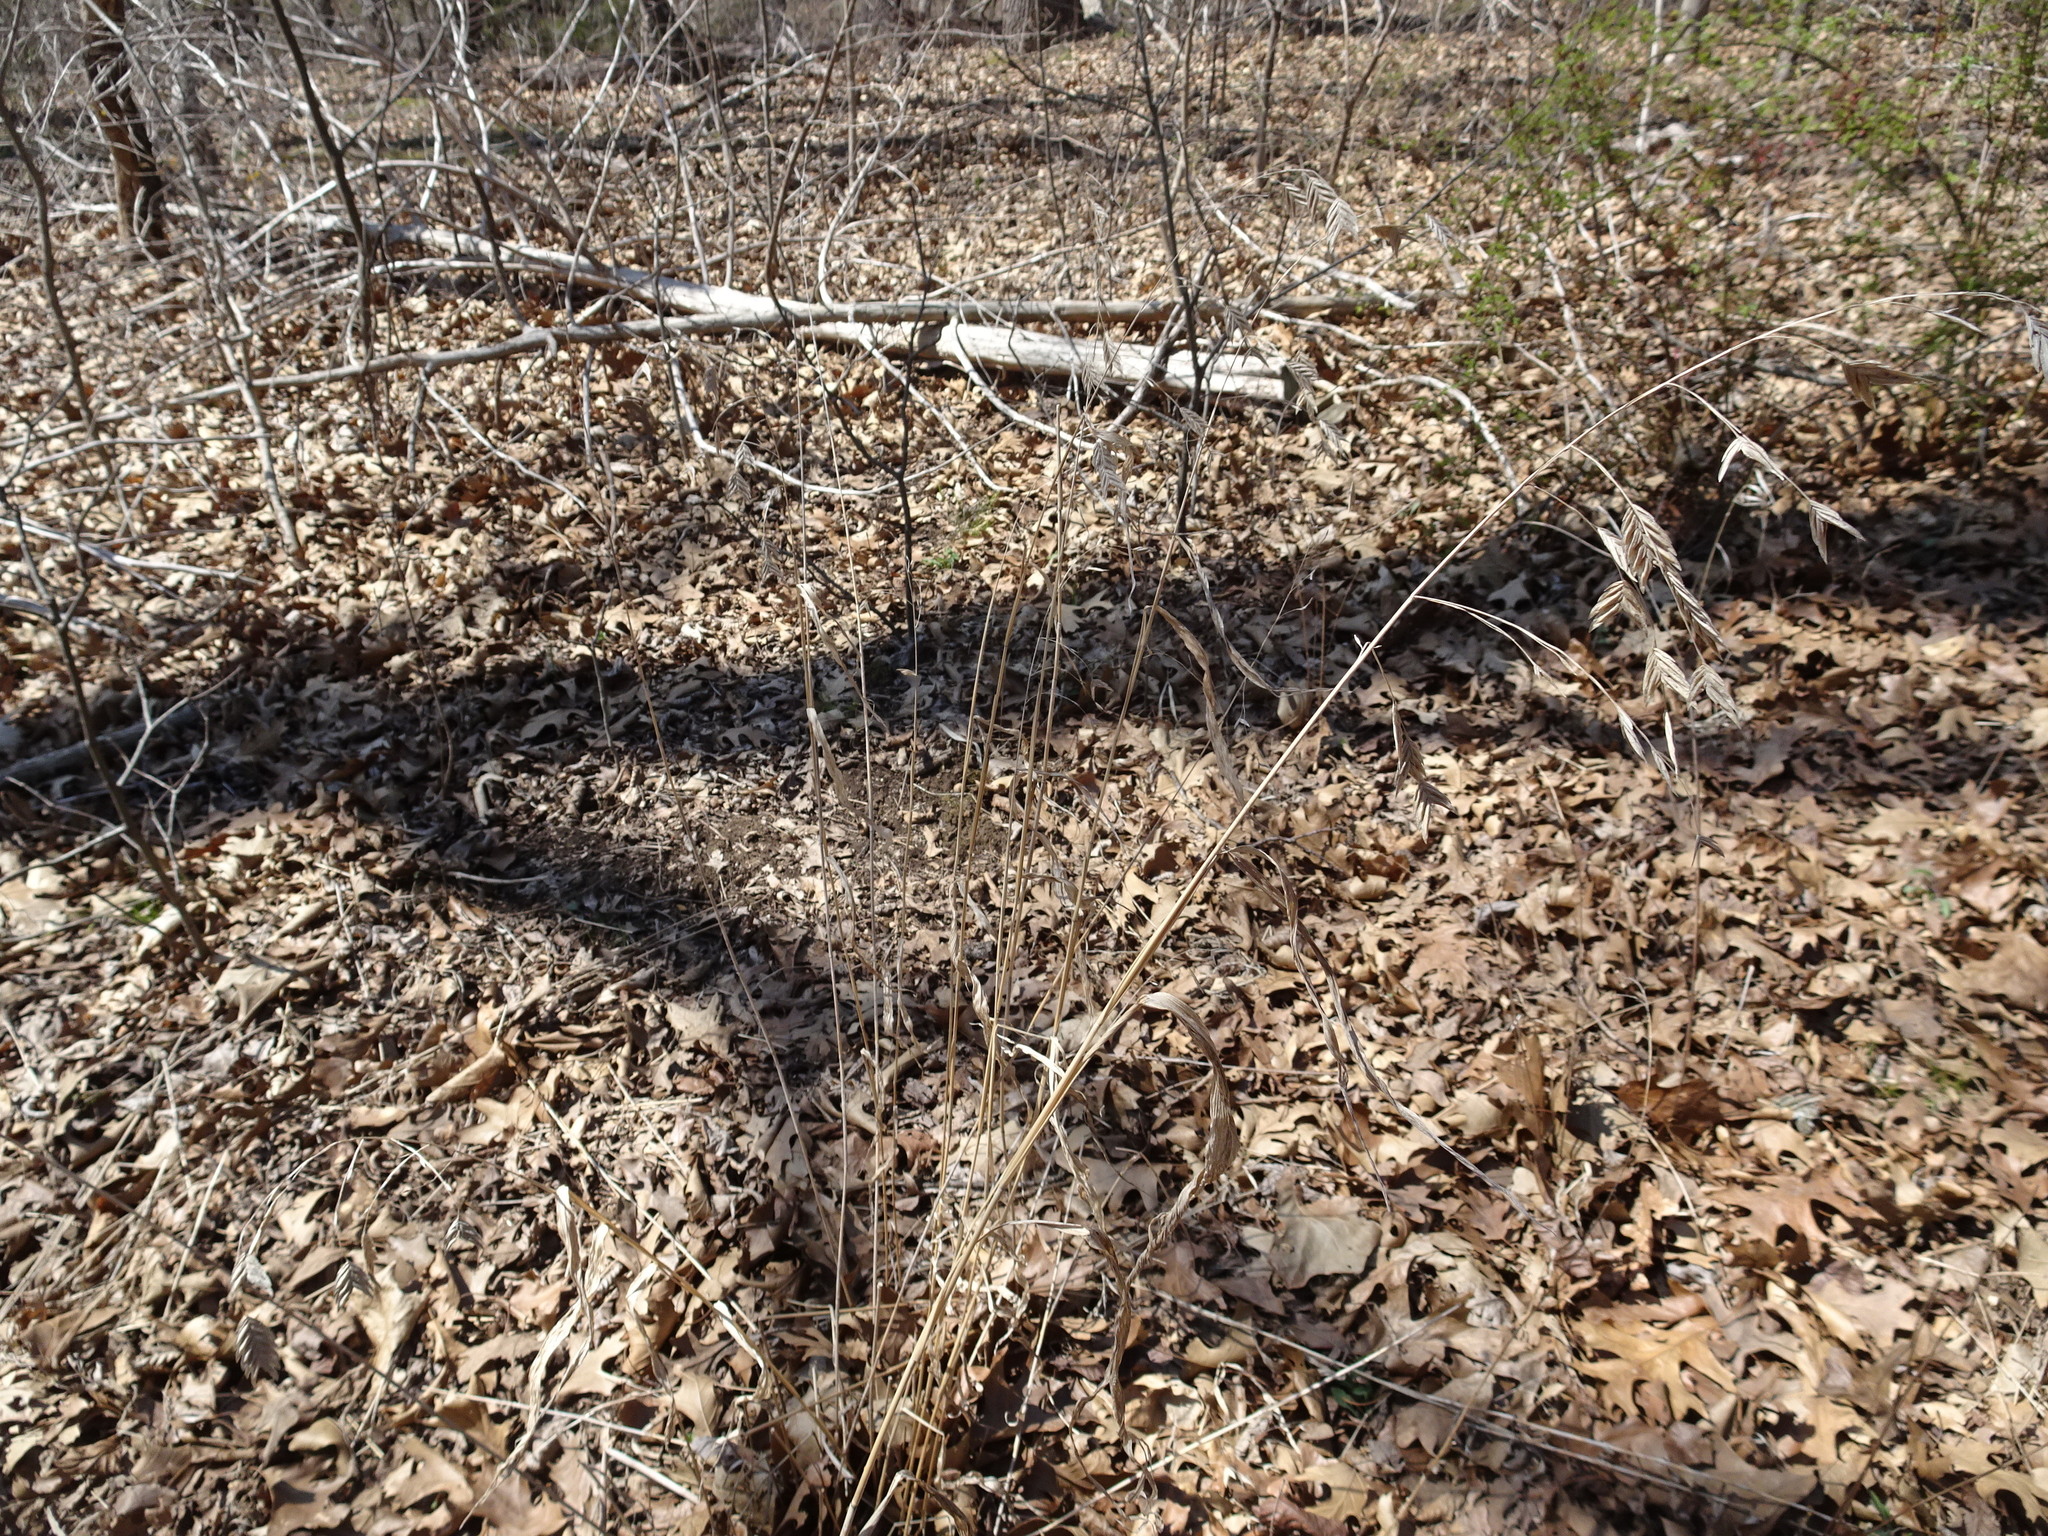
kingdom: Plantae
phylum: Tracheophyta
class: Liliopsida
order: Poales
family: Poaceae
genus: Chasmanthium
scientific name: Chasmanthium latifolium
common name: Broad-leaved chasmanthium
